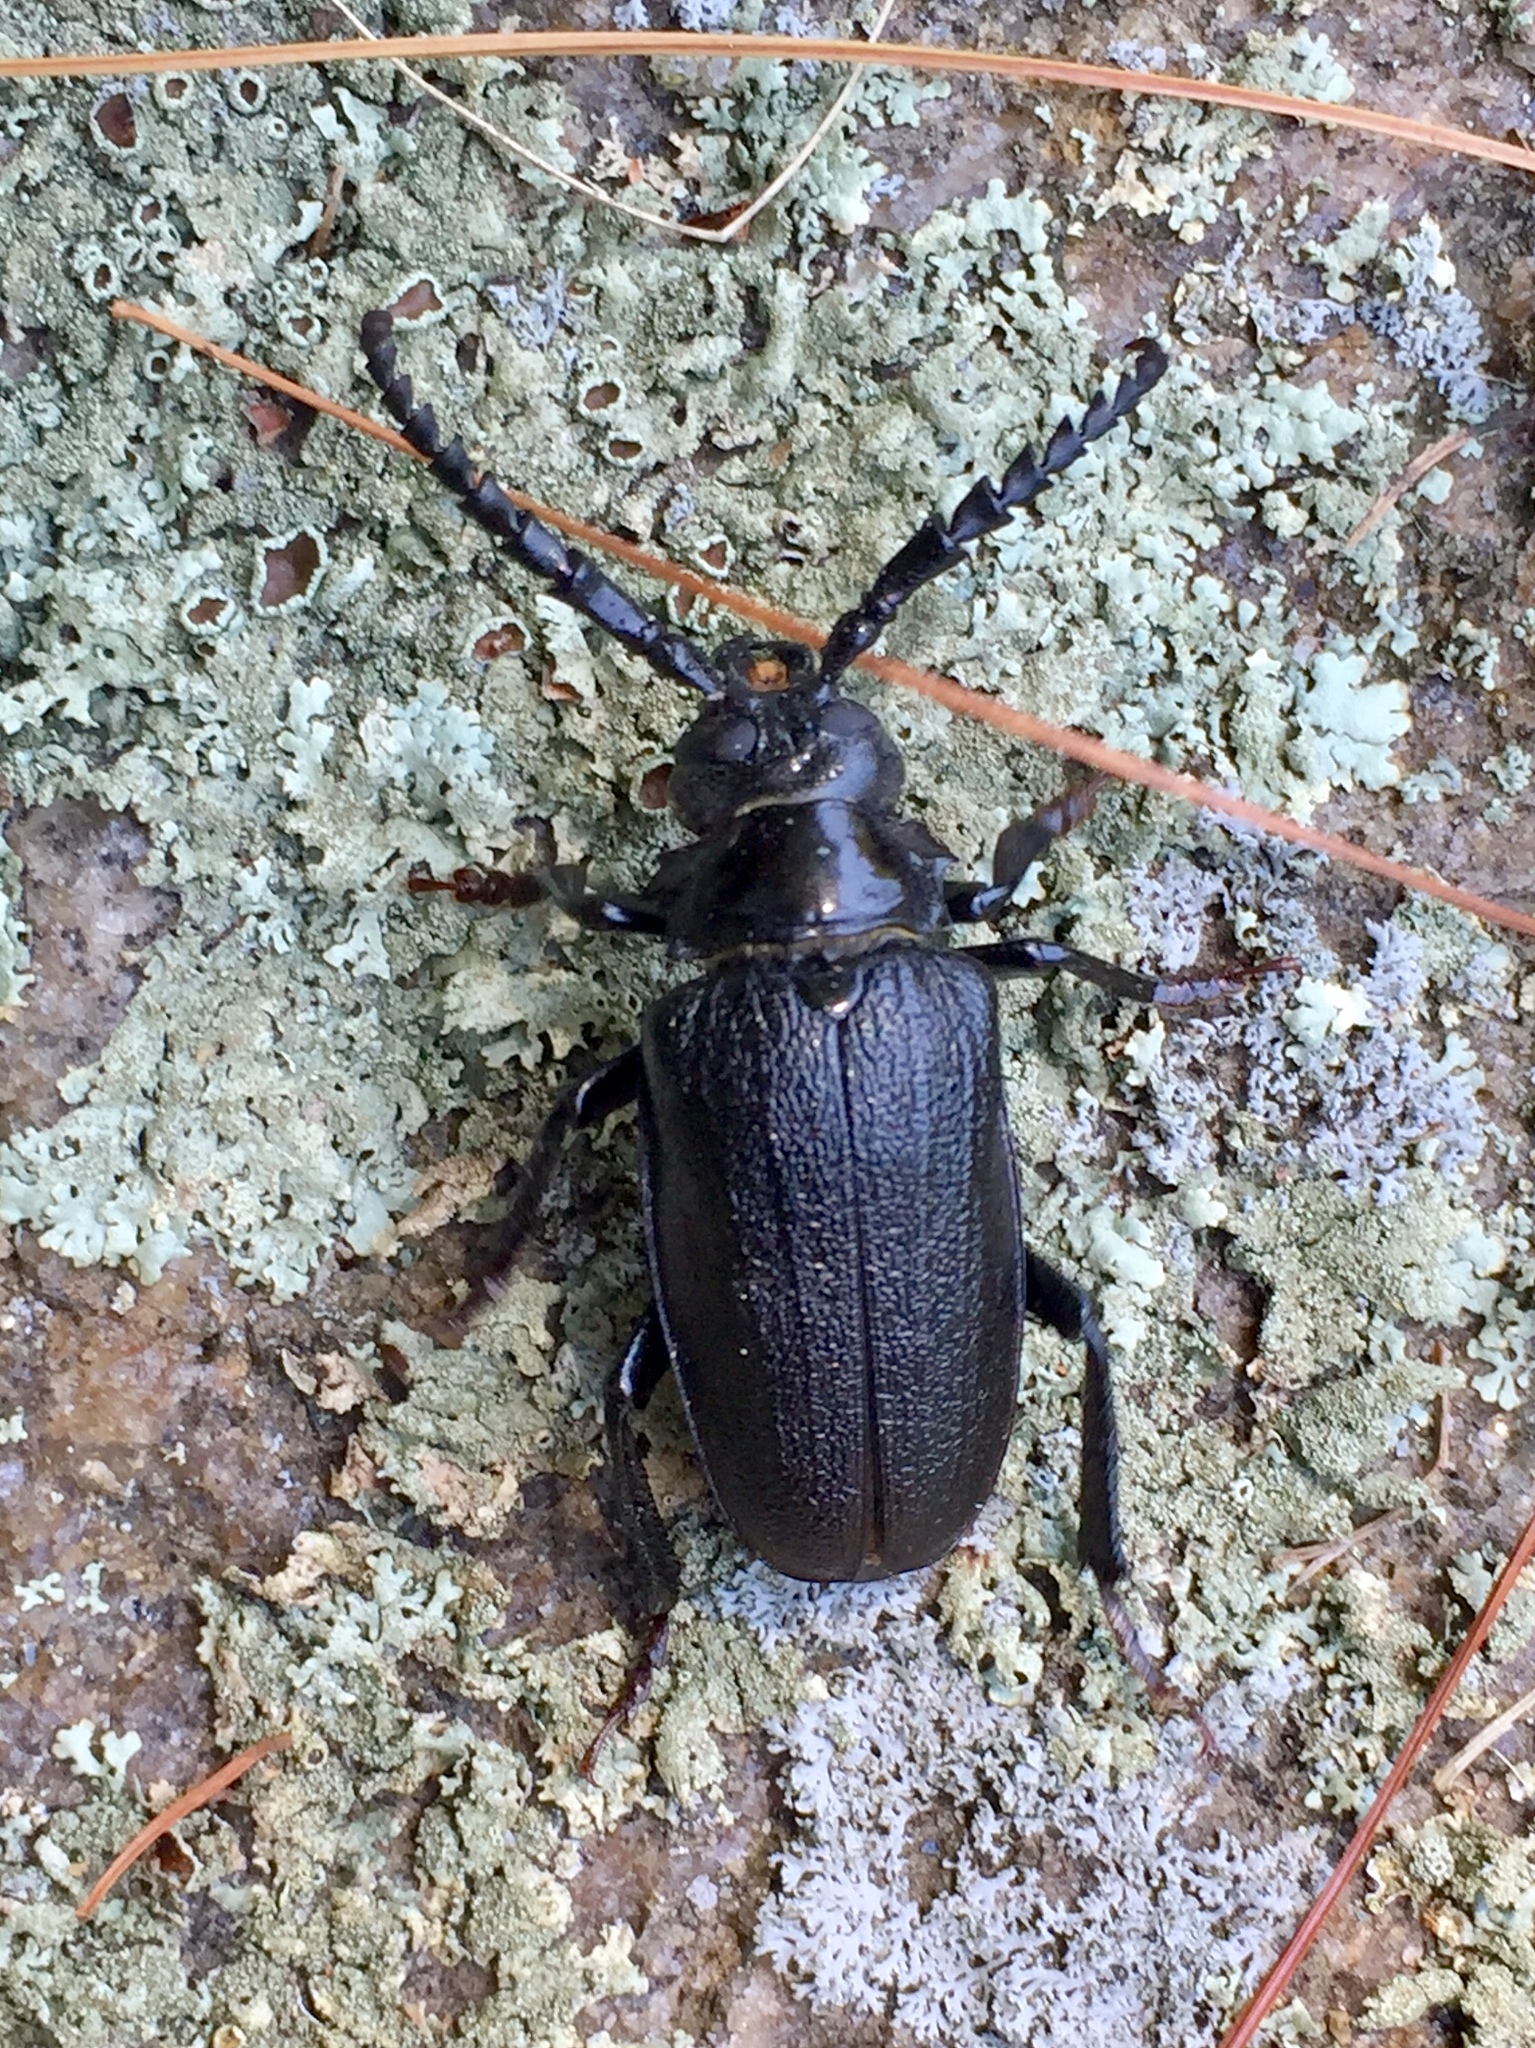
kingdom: Animalia
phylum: Arthropoda
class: Insecta
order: Coleoptera
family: Cerambycidae
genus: Prionus
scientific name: Prionus laticollis
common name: Broad necked prionus
